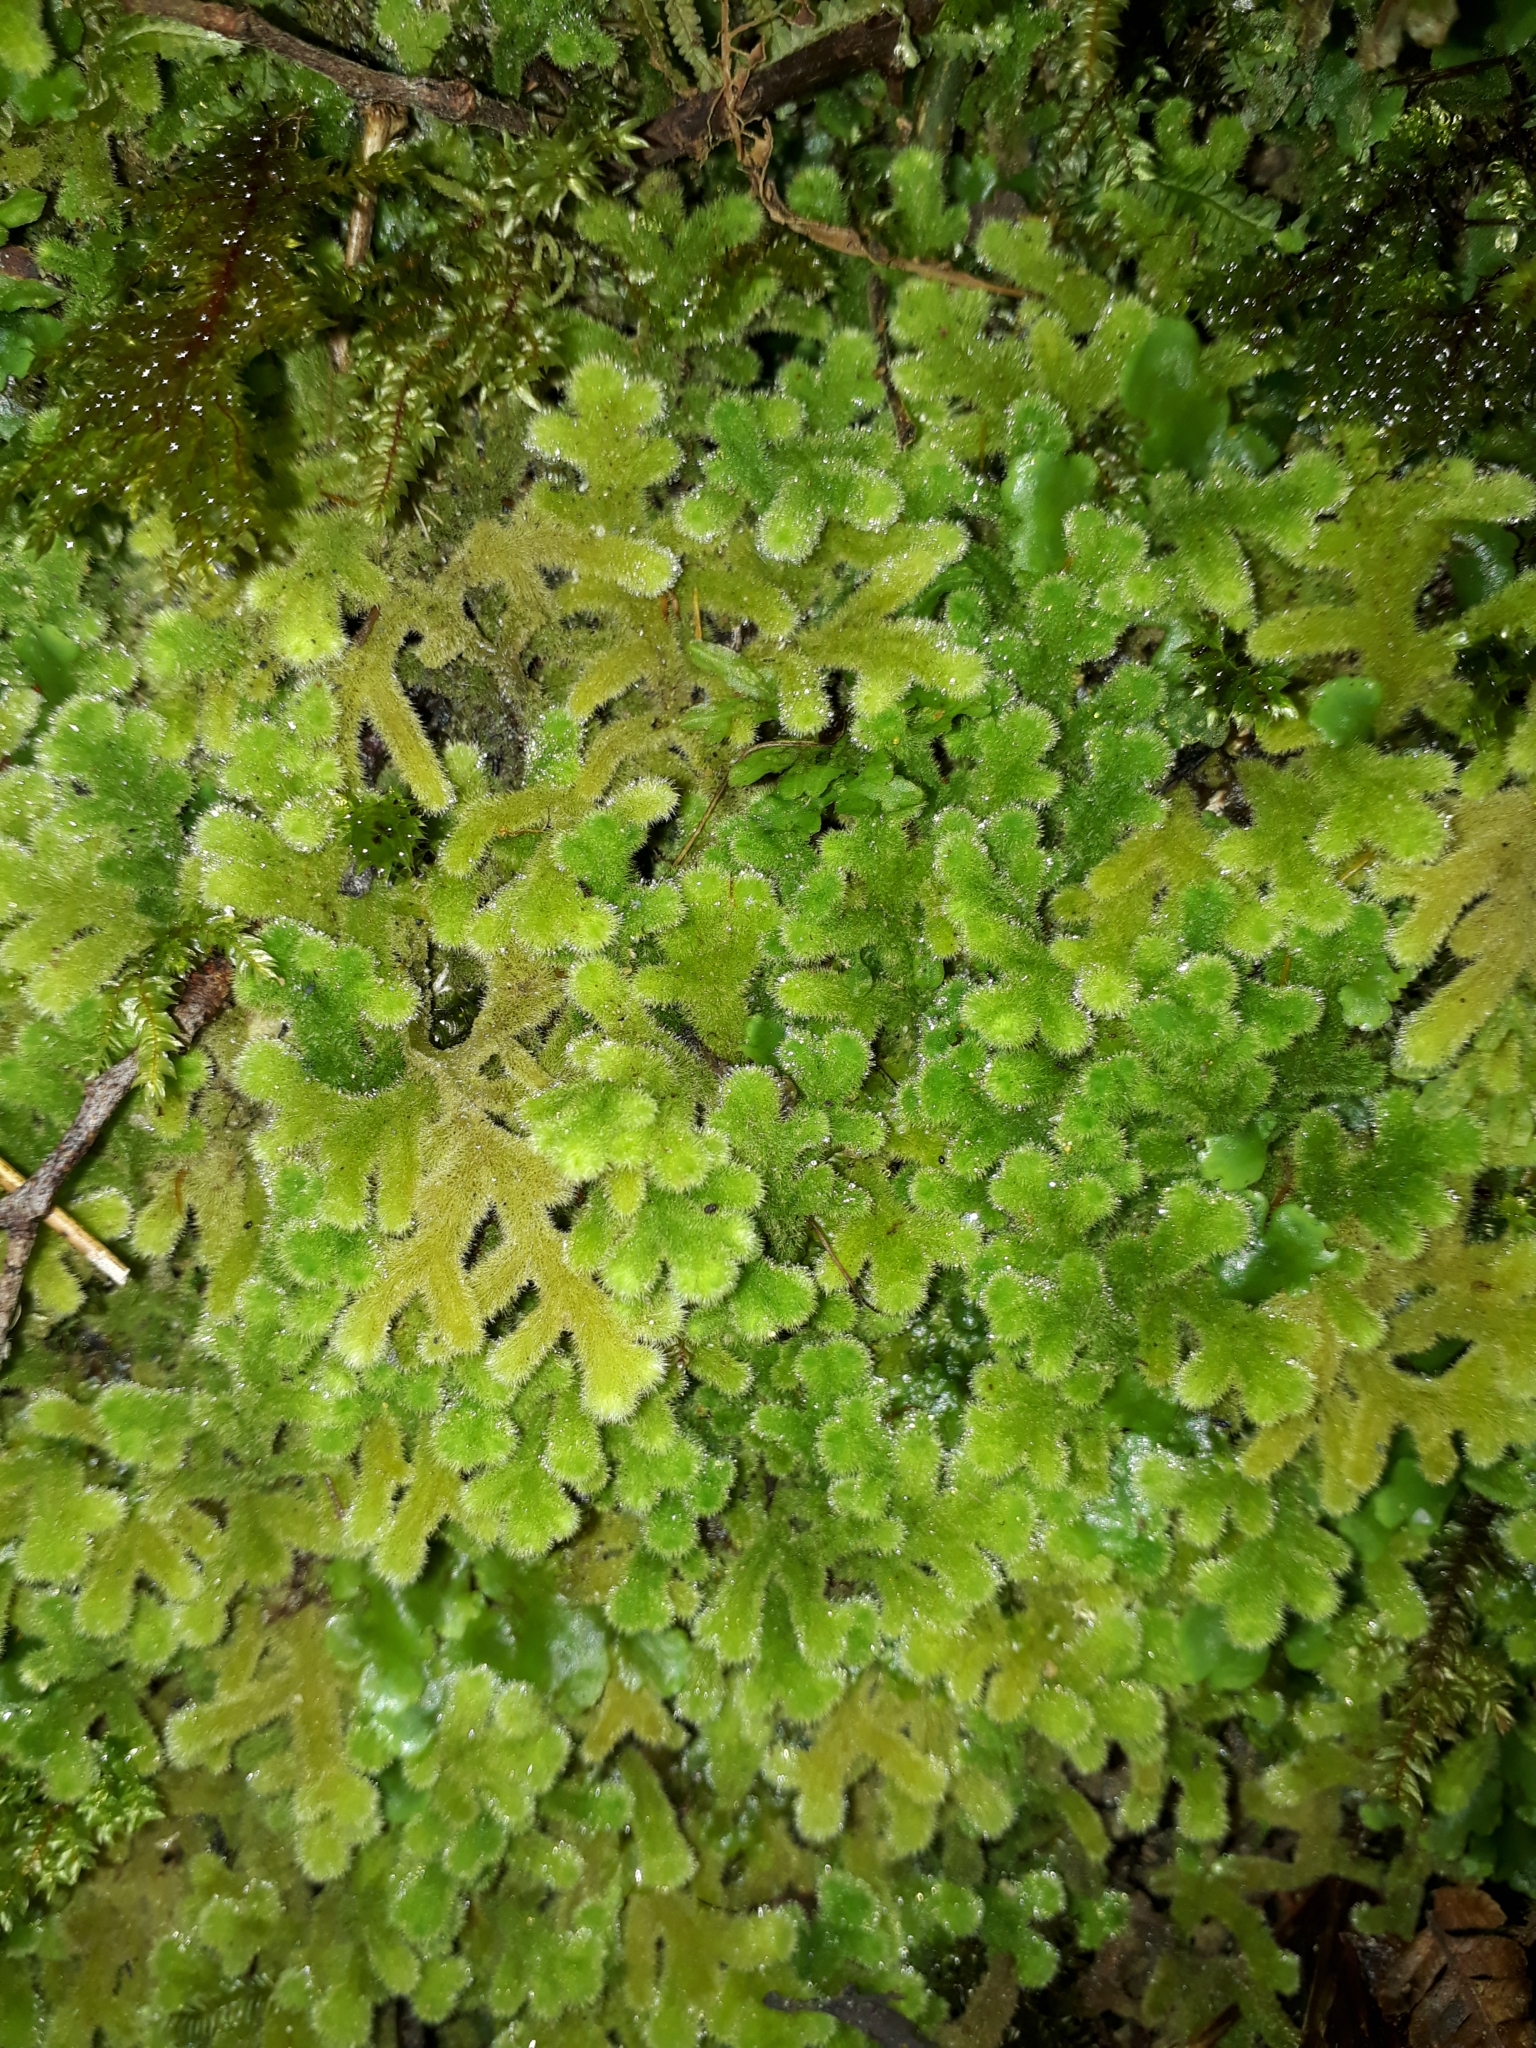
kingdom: Plantae
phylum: Marchantiophyta
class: Jungermanniopsida
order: Jungermanniales
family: Trichocoleaceae
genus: Leiomitra
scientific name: Leiomitra lanata
